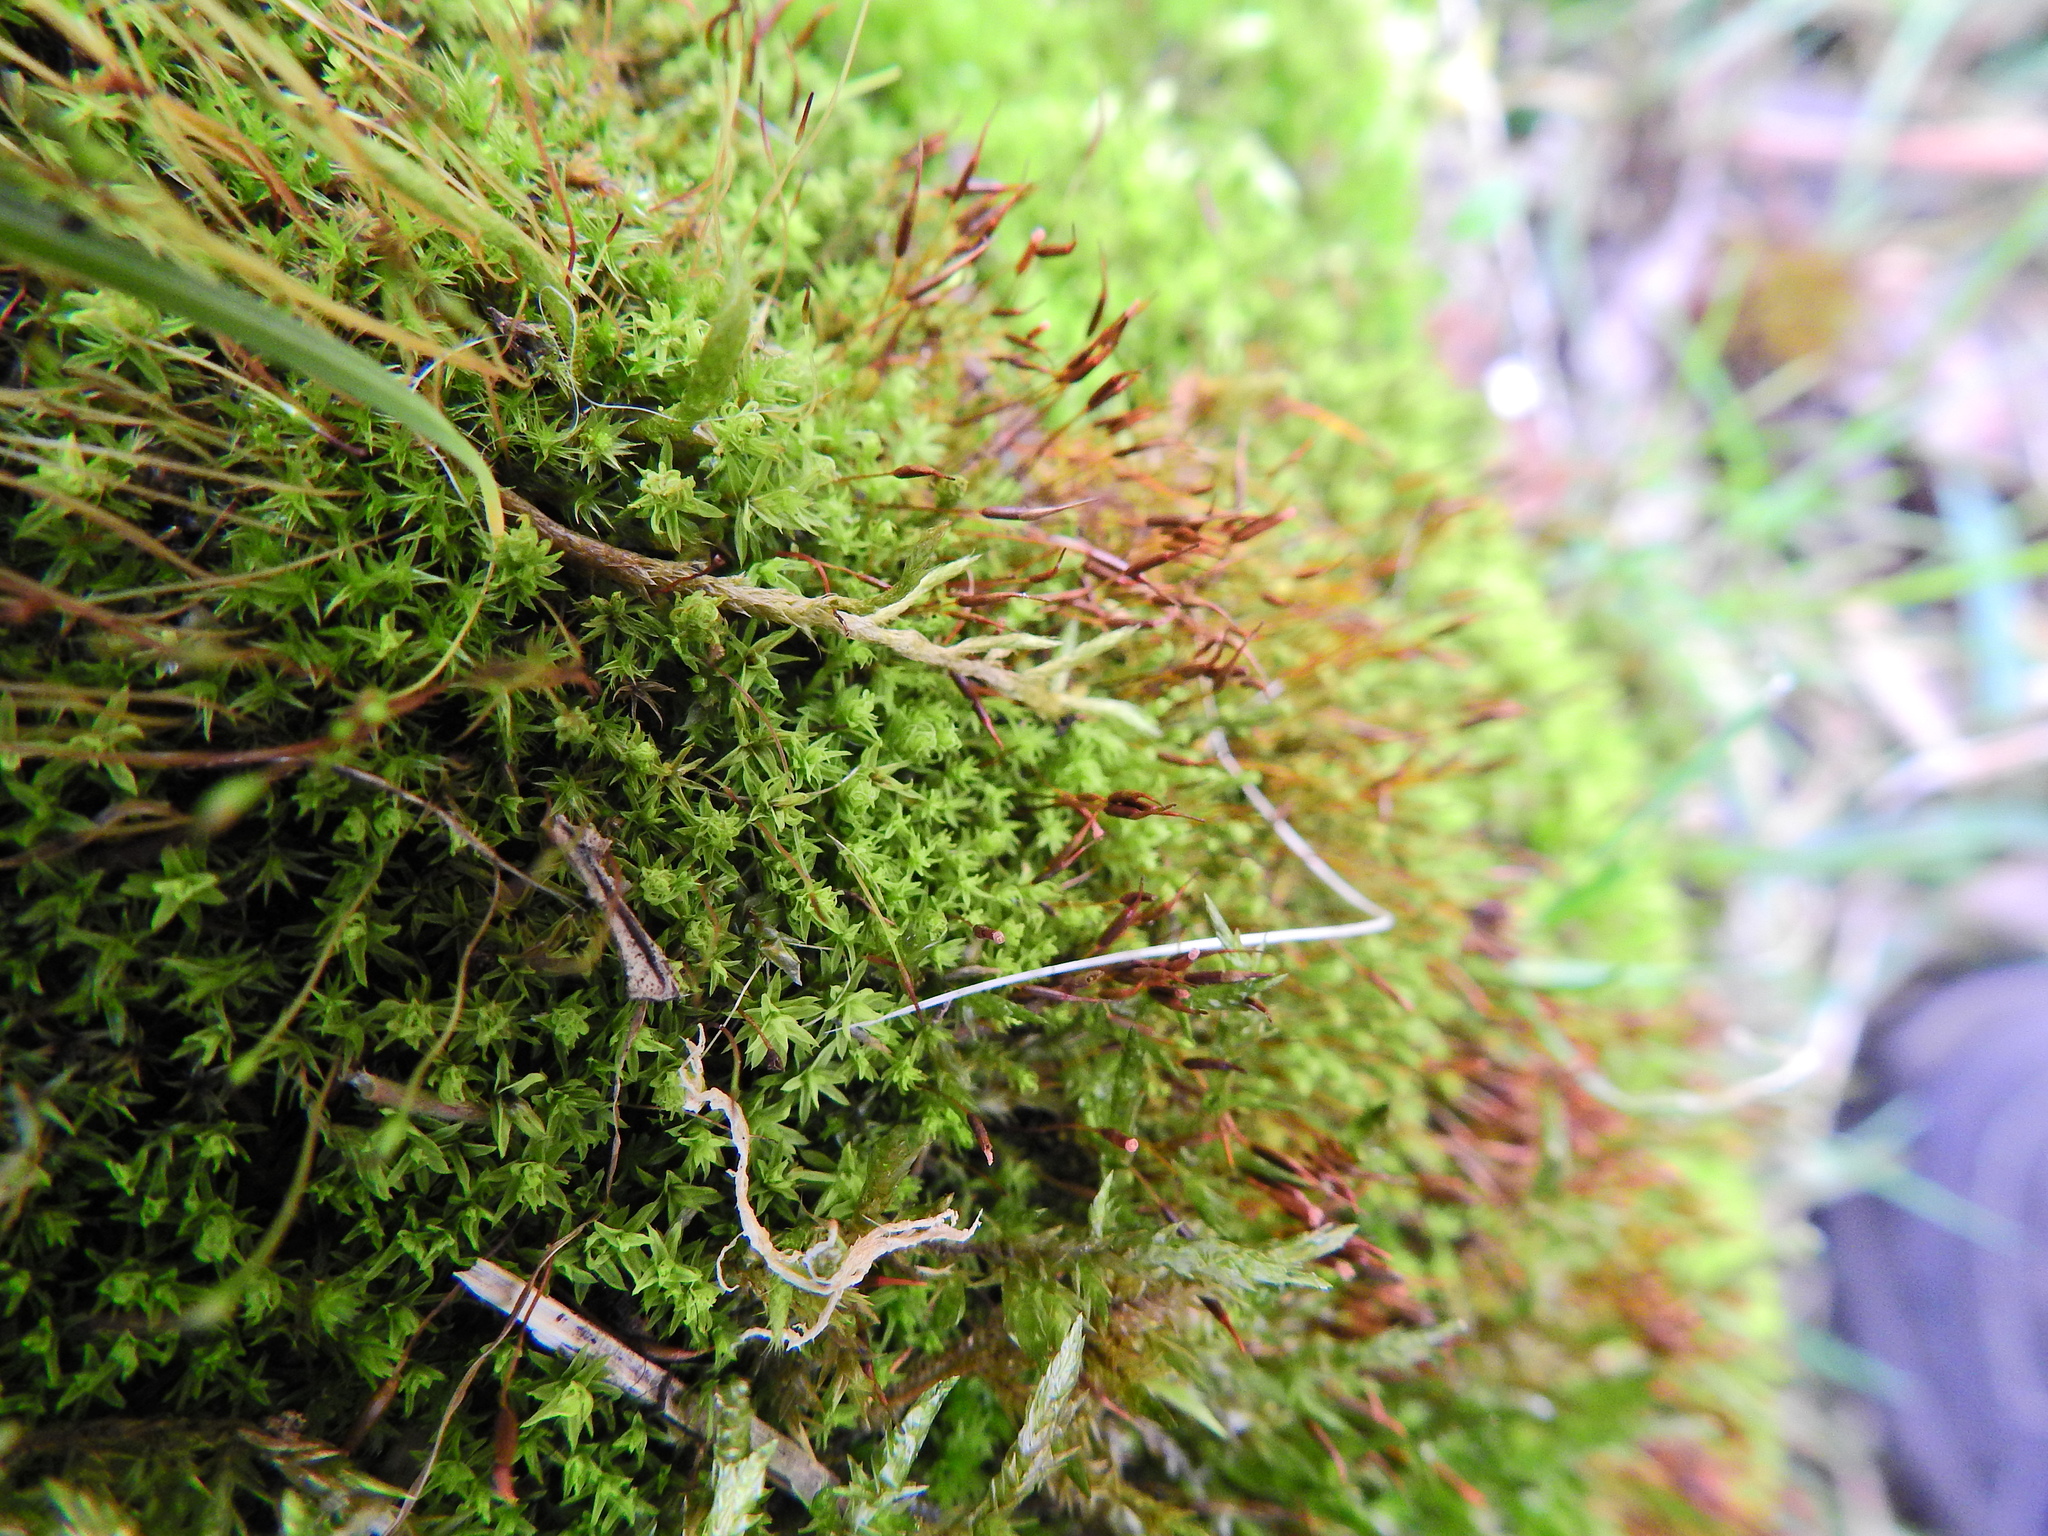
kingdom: Plantae
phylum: Bryophyta
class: Bryopsida
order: Pottiales
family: Pottiaceae
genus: Barbula
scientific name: Barbula unguiculata
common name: Prickly beard moss
